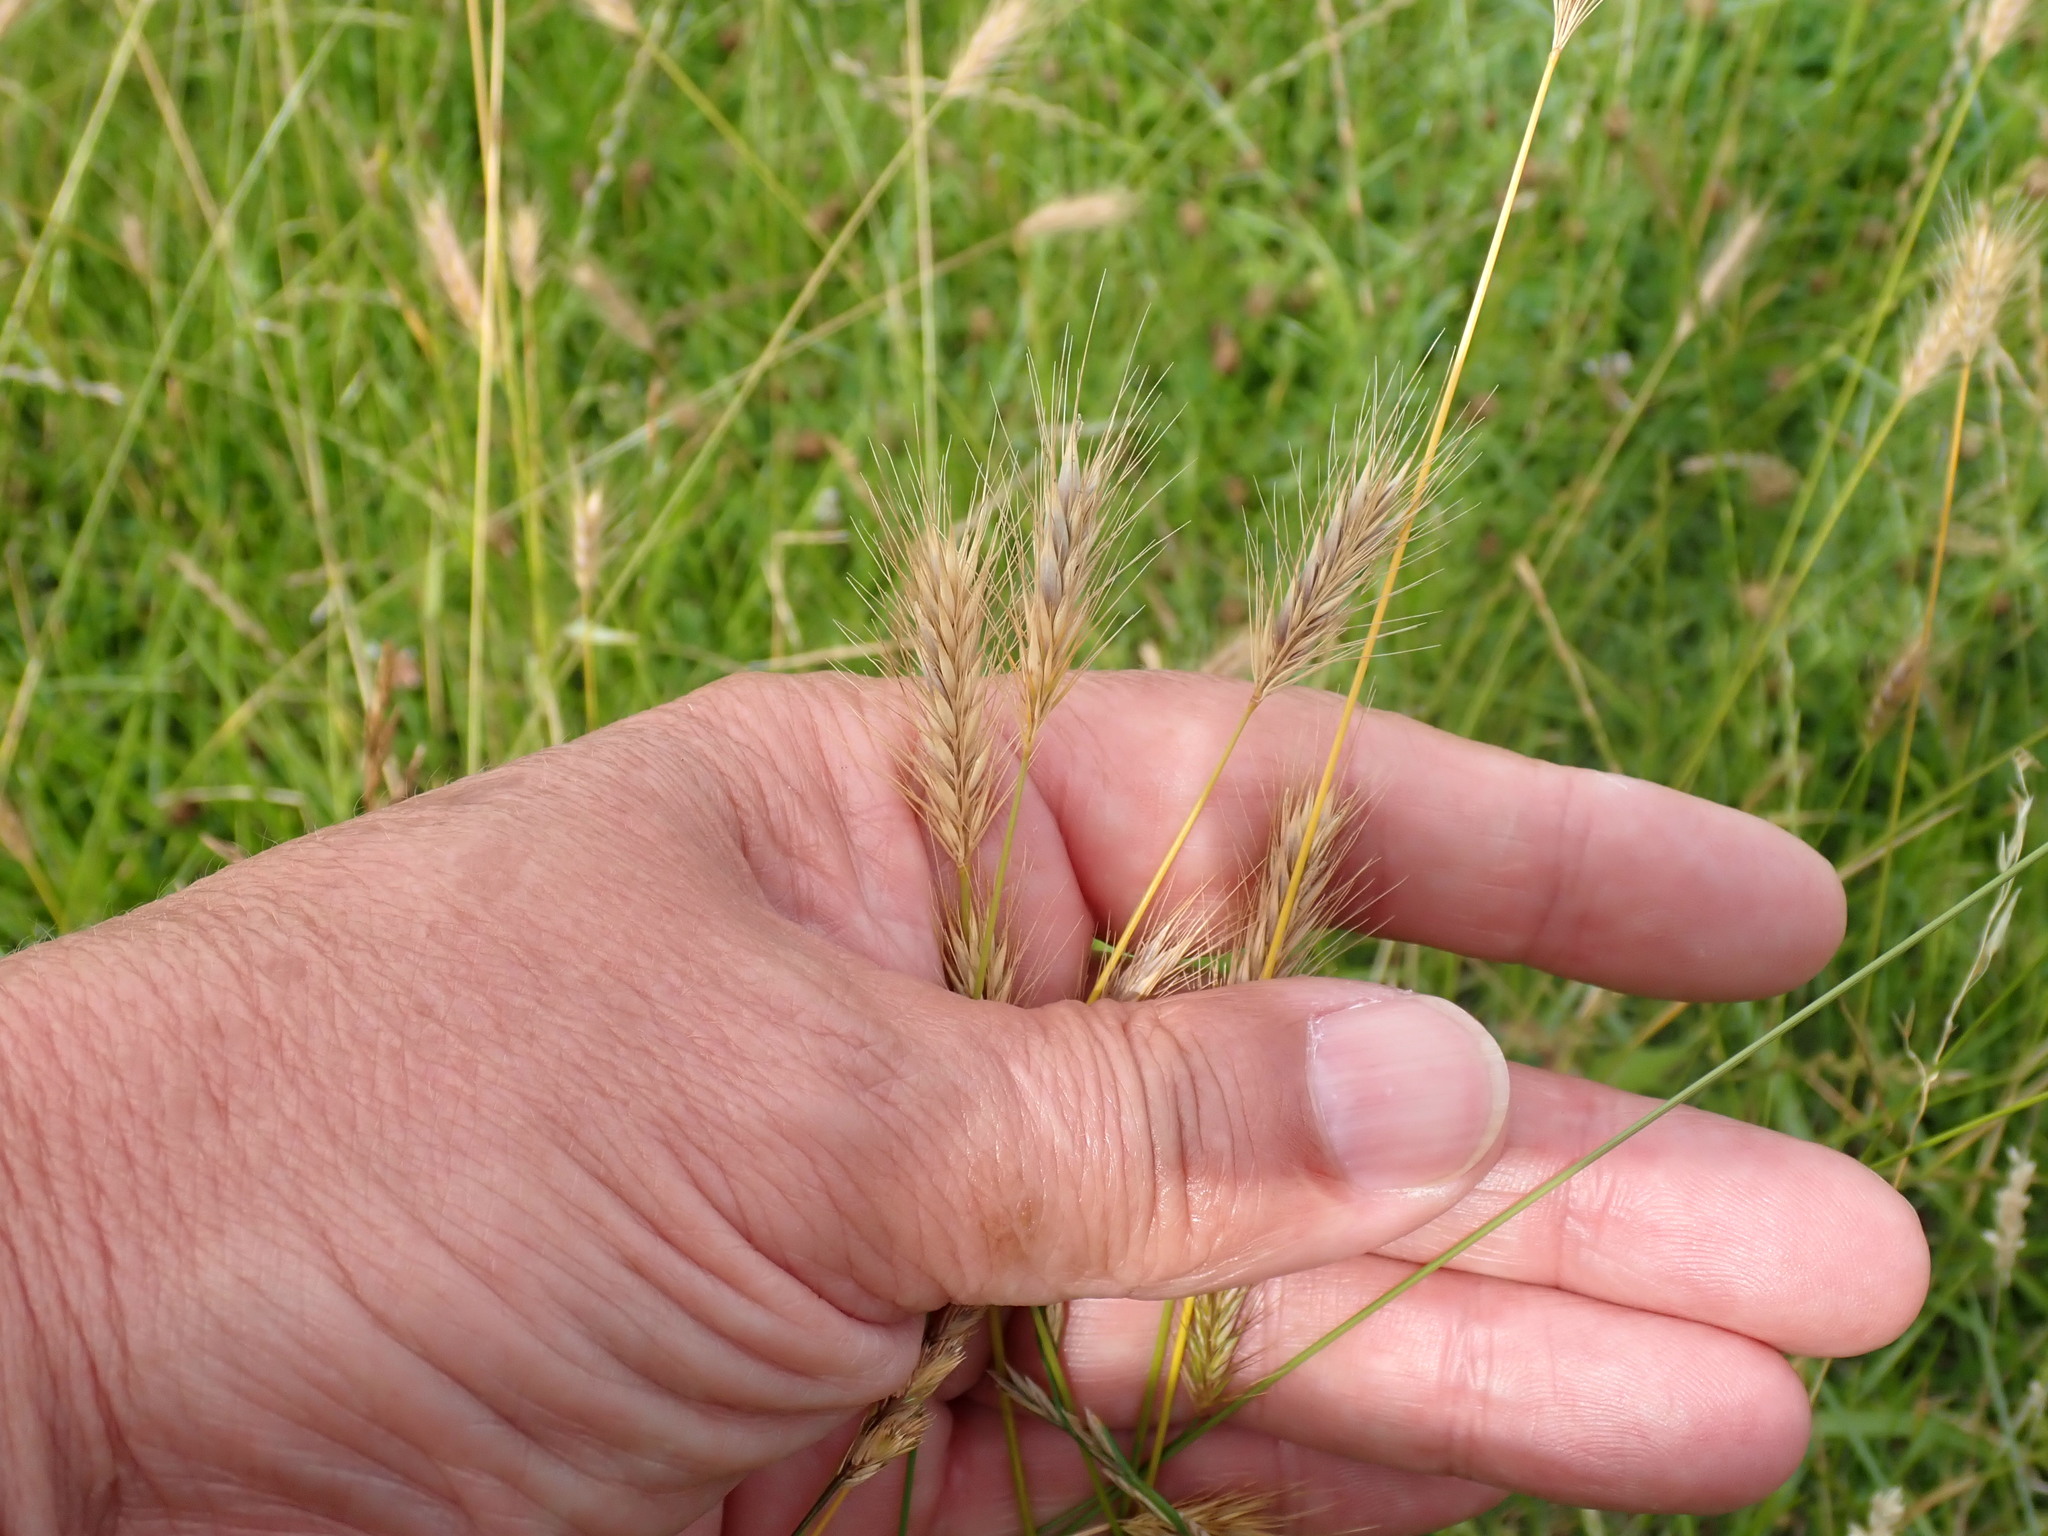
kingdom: Plantae
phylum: Tracheophyta
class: Liliopsida
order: Poales
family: Poaceae
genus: Hordeum
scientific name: Hordeum secalinum
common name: Meadow barley
